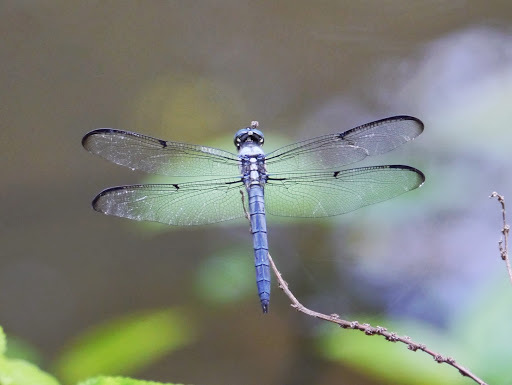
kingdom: Animalia
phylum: Arthropoda
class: Insecta
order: Odonata
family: Libellulidae
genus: Libellula
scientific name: Libellula vibrans
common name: Great blue skimmer
